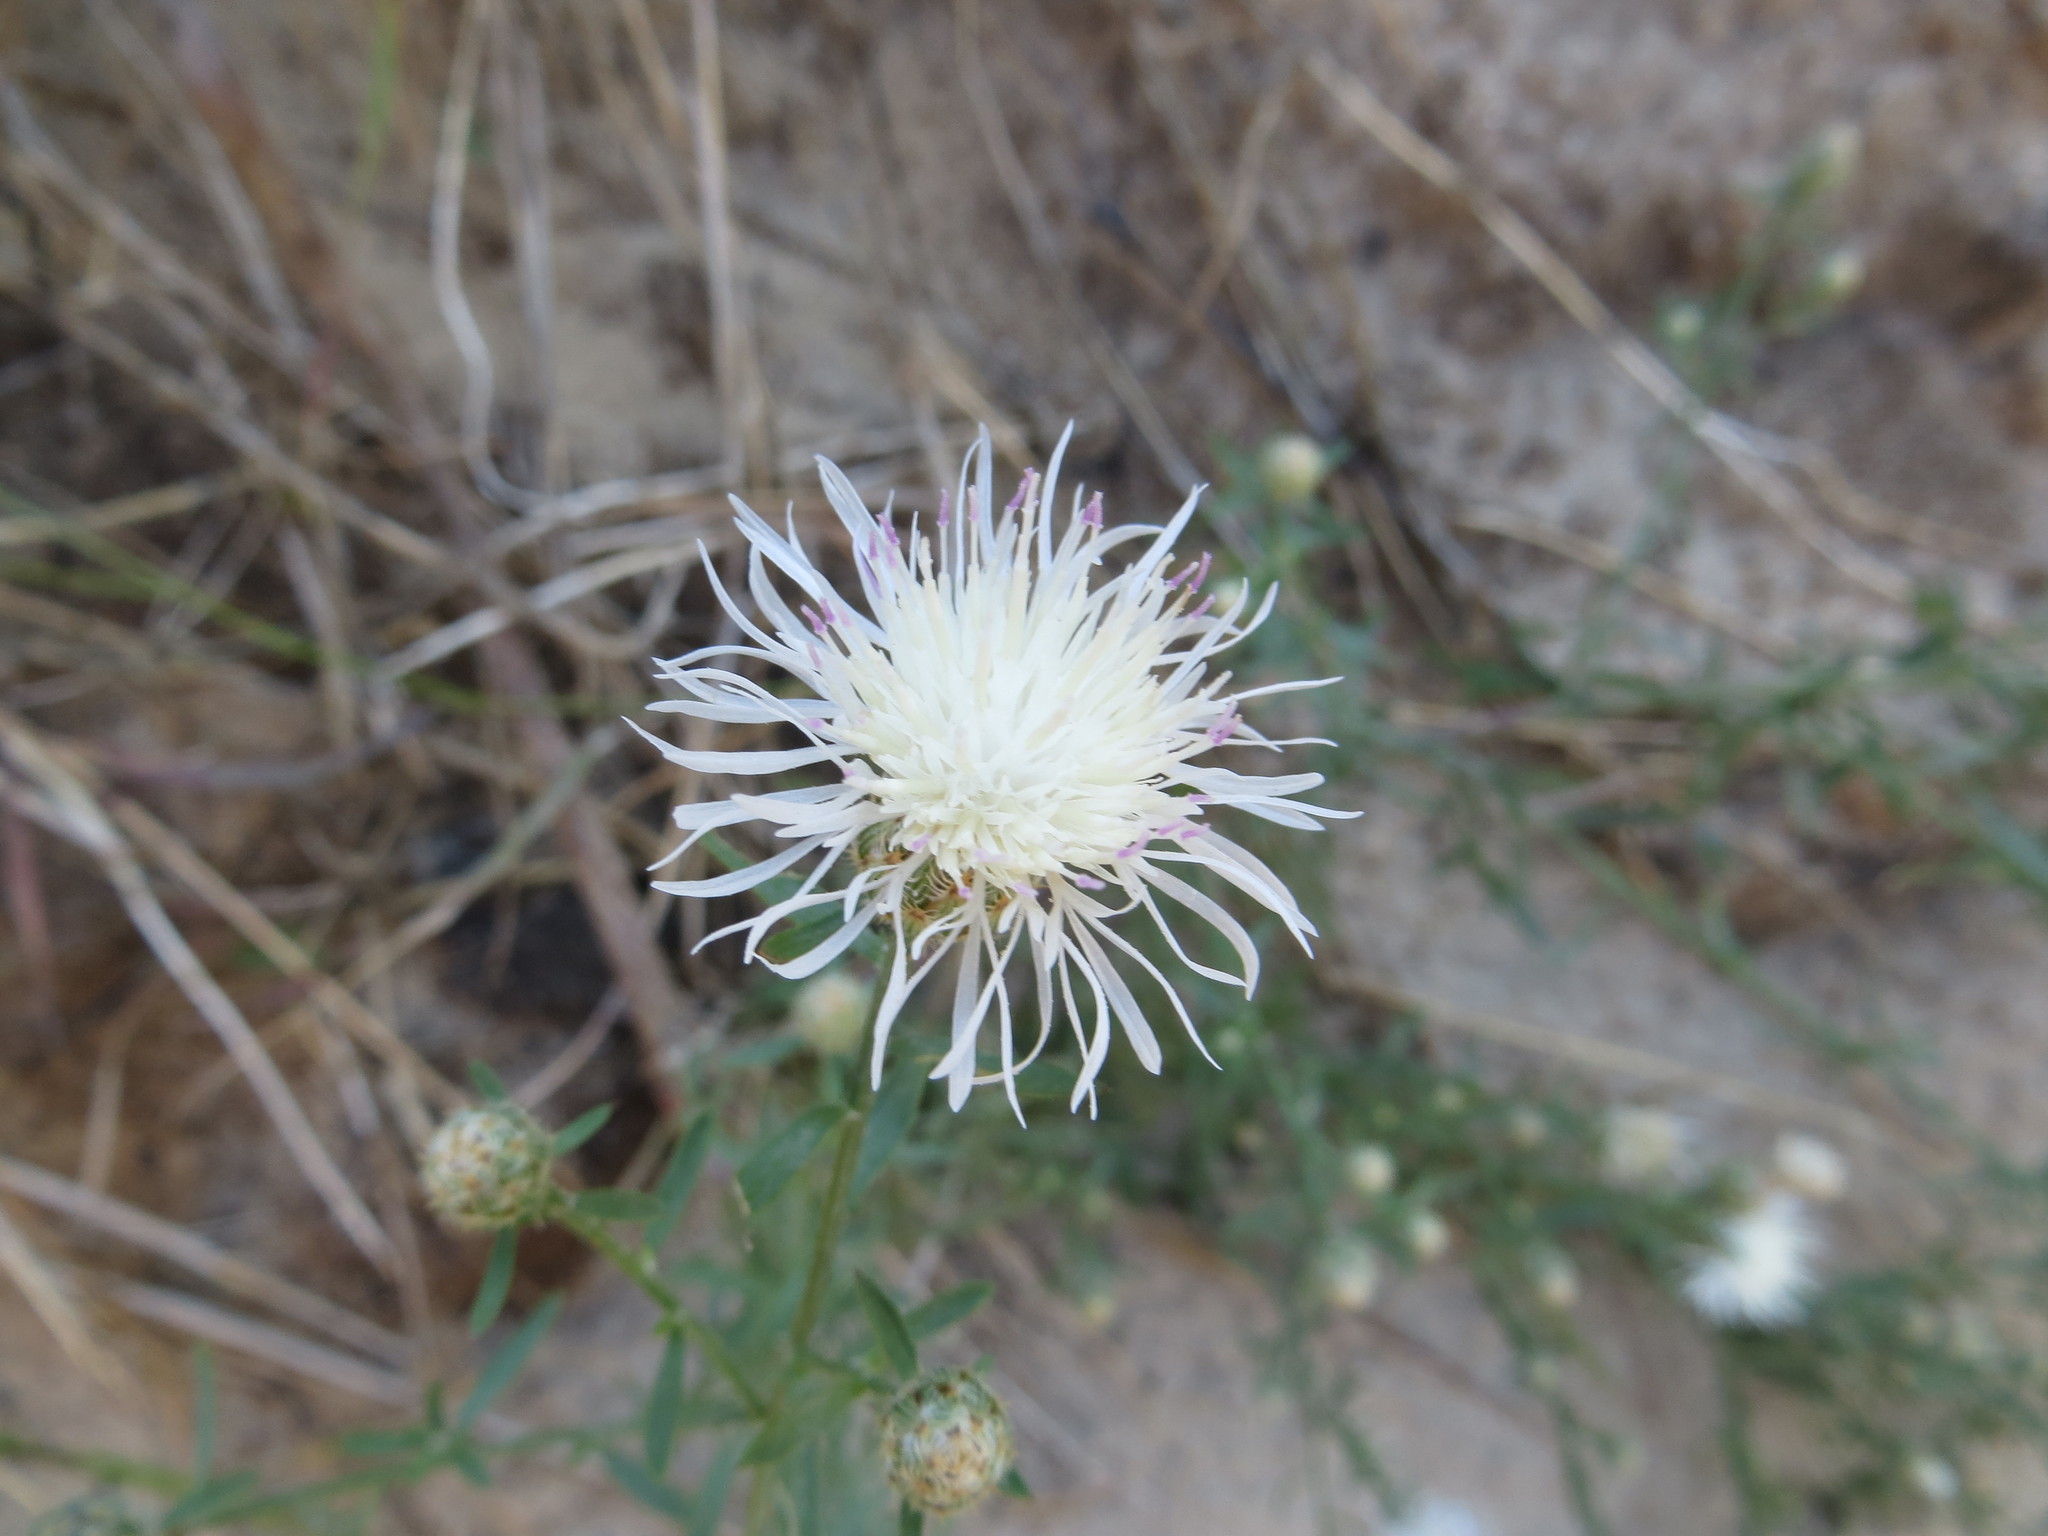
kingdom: Plantae
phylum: Tracheophyta
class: Magnoliopsida
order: Asterales
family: Asteraceae
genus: Centaurea
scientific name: Centaurea stoebe
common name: Spotted knapweed
